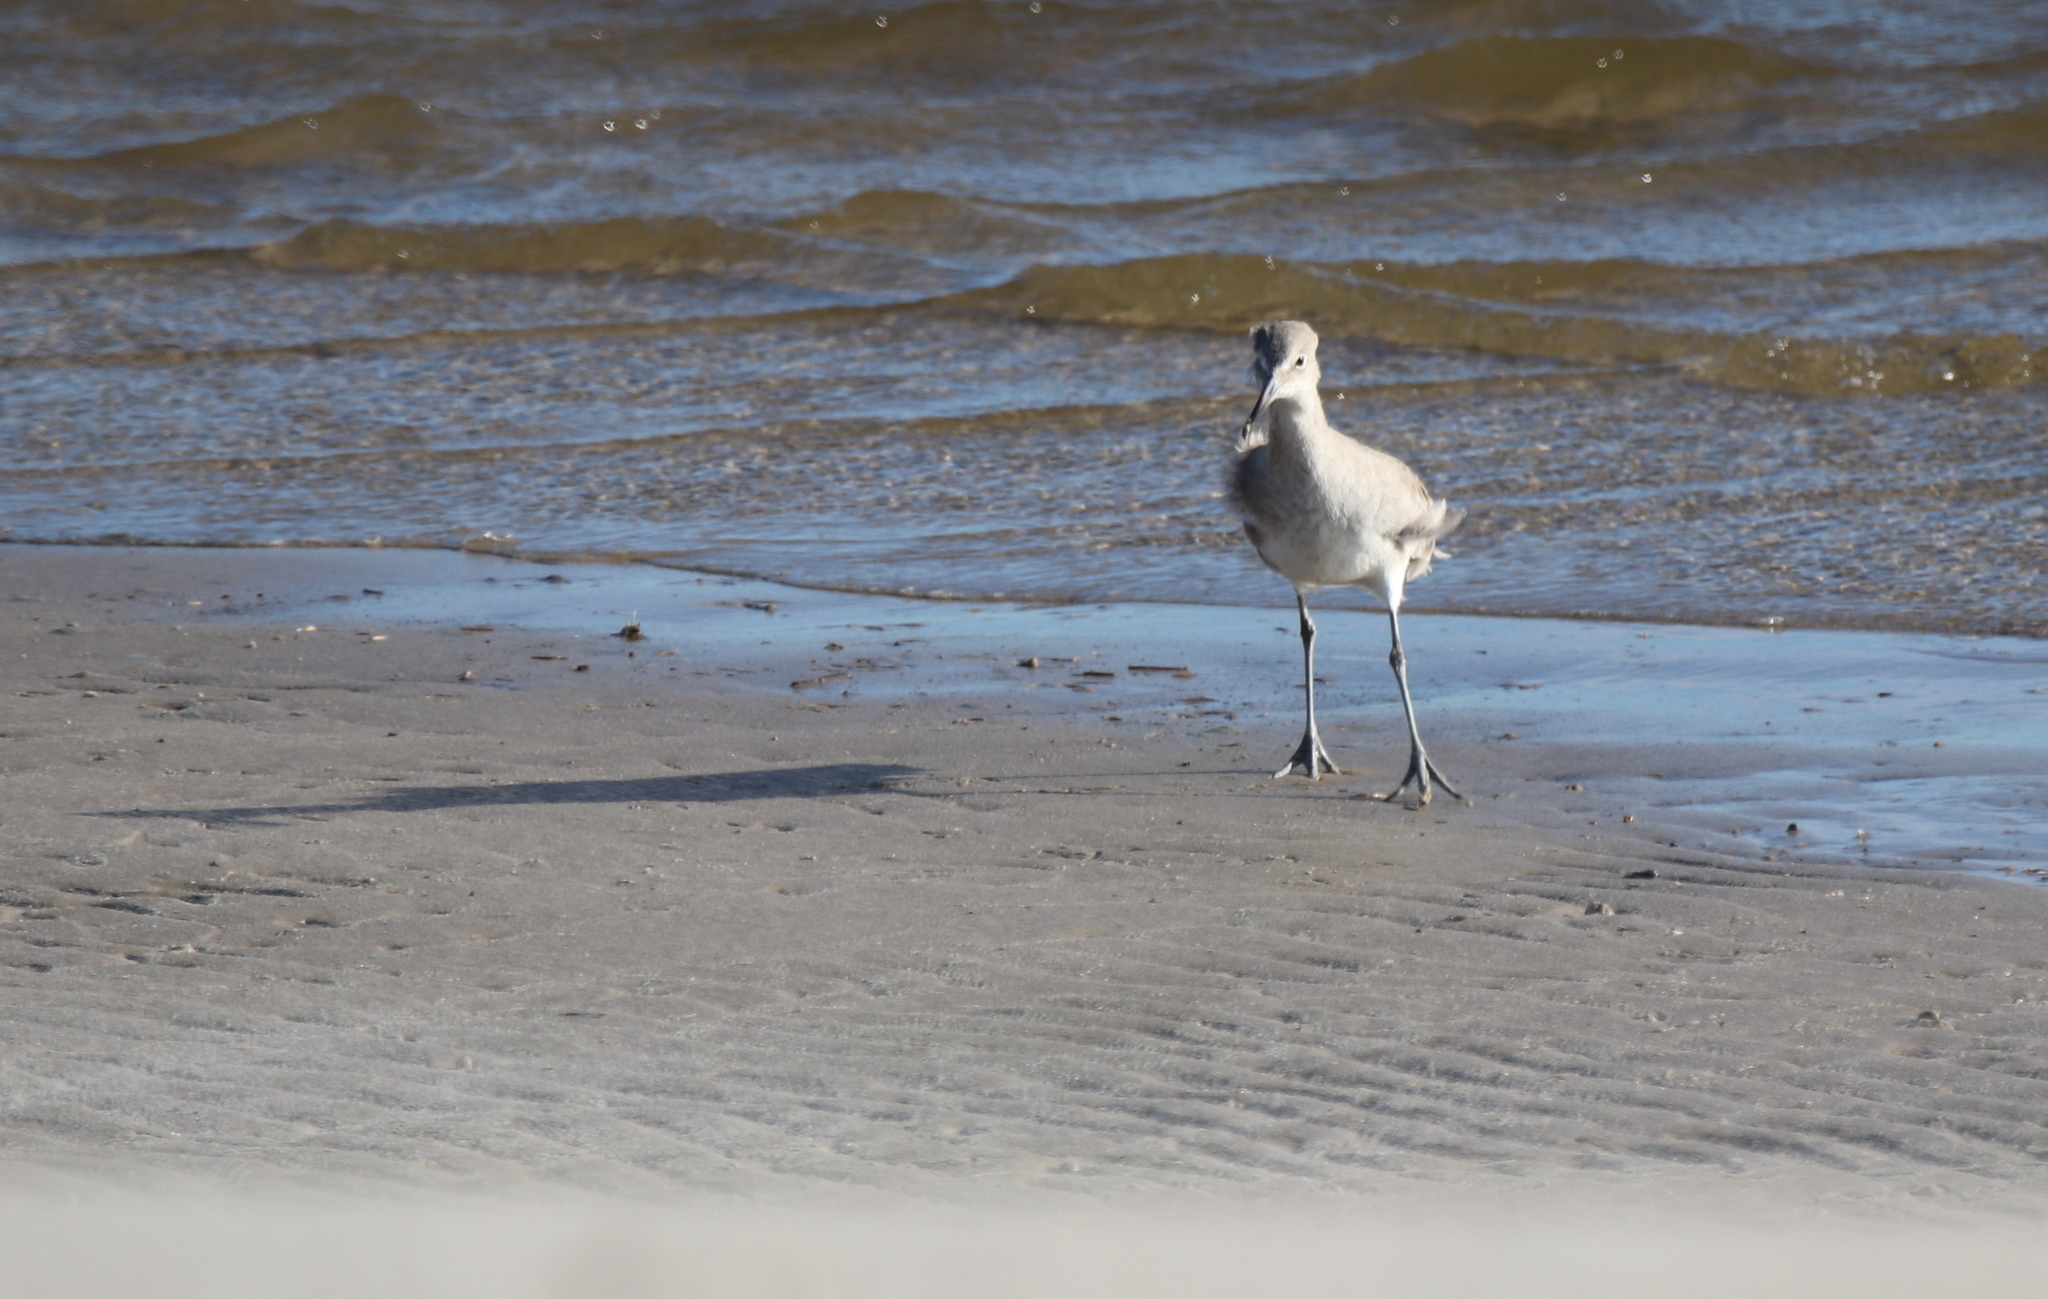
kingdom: Animalia
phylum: Chordata
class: Aves
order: Charadriiformes
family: Scolopacidae
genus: Tringa
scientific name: Tringa semipalmata
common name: Willet
